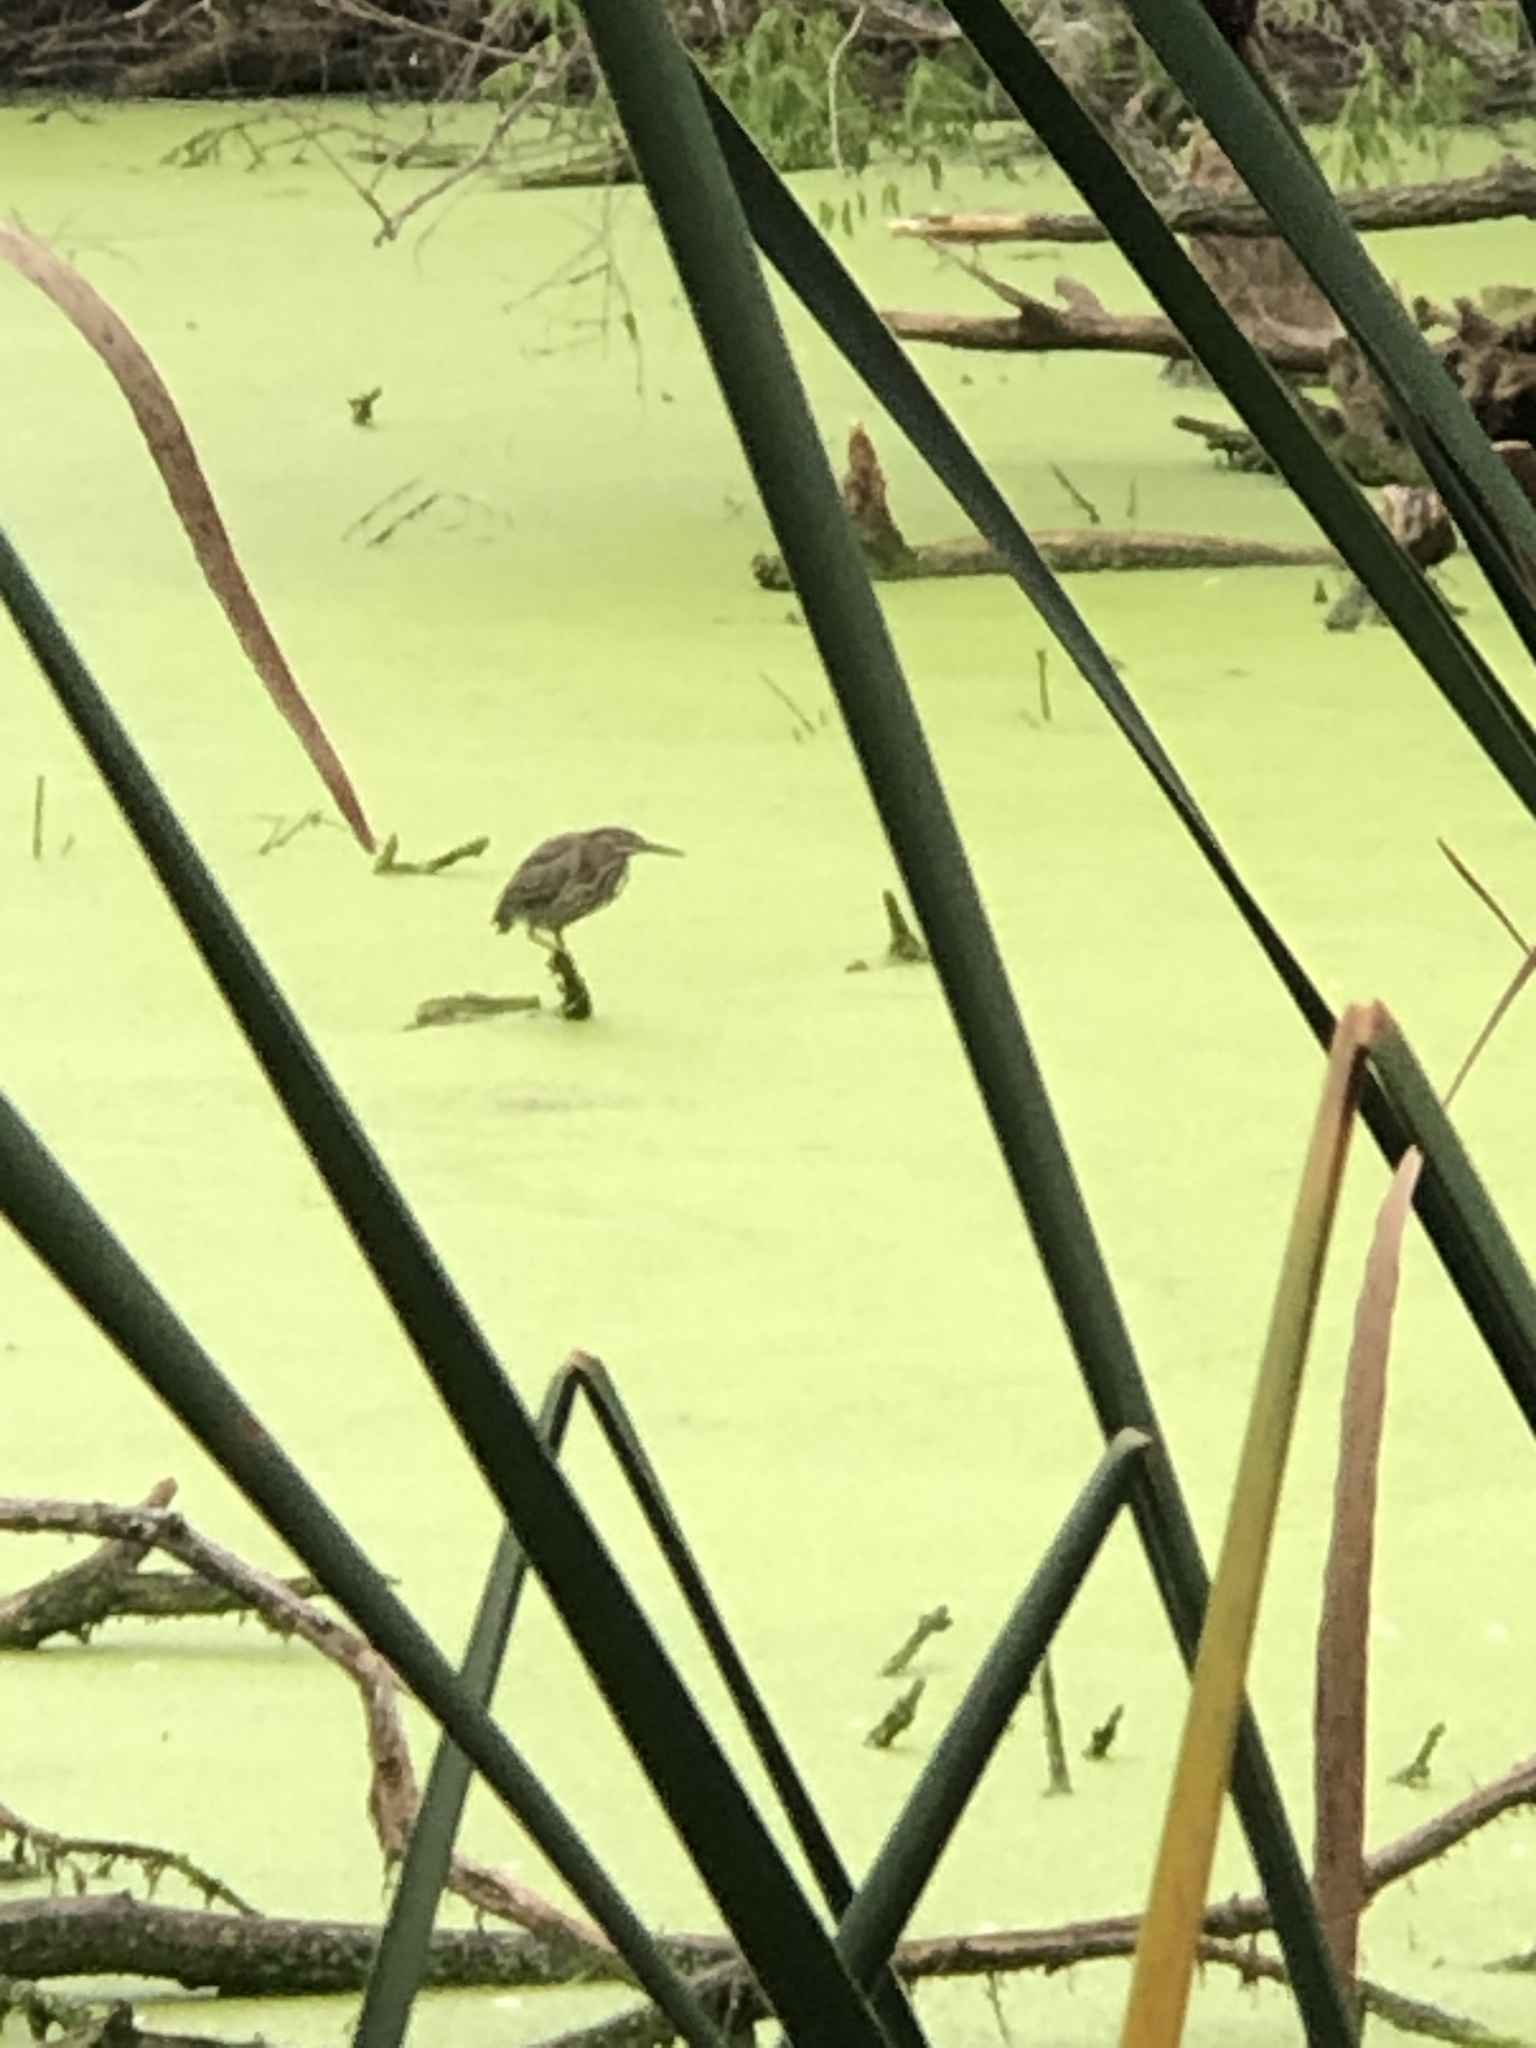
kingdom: Animalia
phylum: Chordata
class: Aves
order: Pelecaniformes
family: Ardeidae
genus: Butorides
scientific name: Butorides virescens
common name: Green heron
